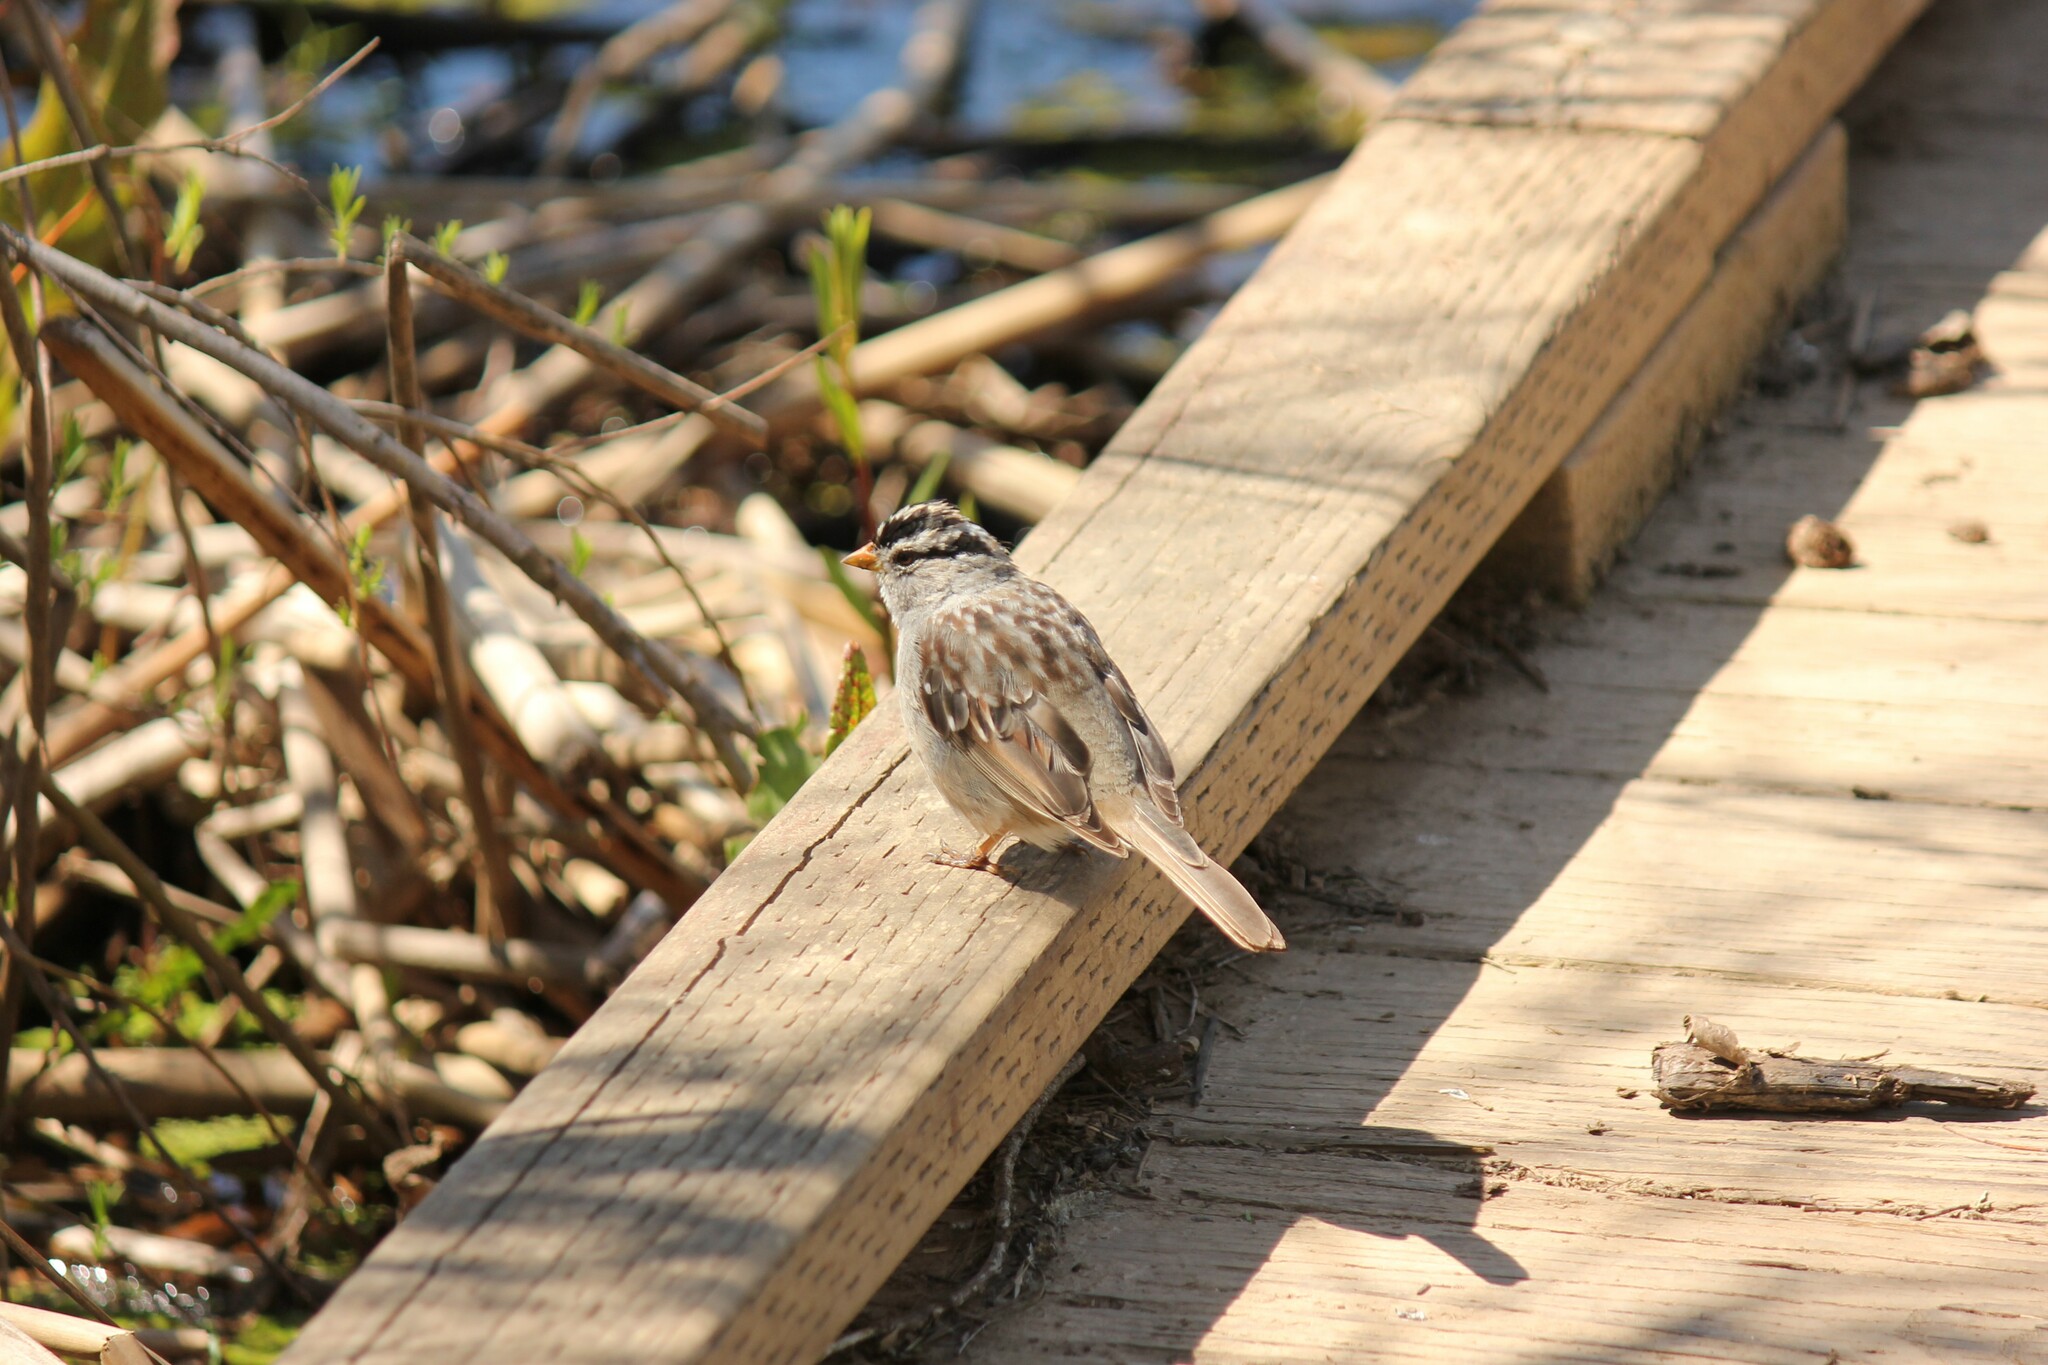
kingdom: Animalia
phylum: Chordata
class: Aves
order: Passeriformes
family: Passerellidae
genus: Zonotrichia
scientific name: Zonotrichia leucophrys
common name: White-crowned sparrow
